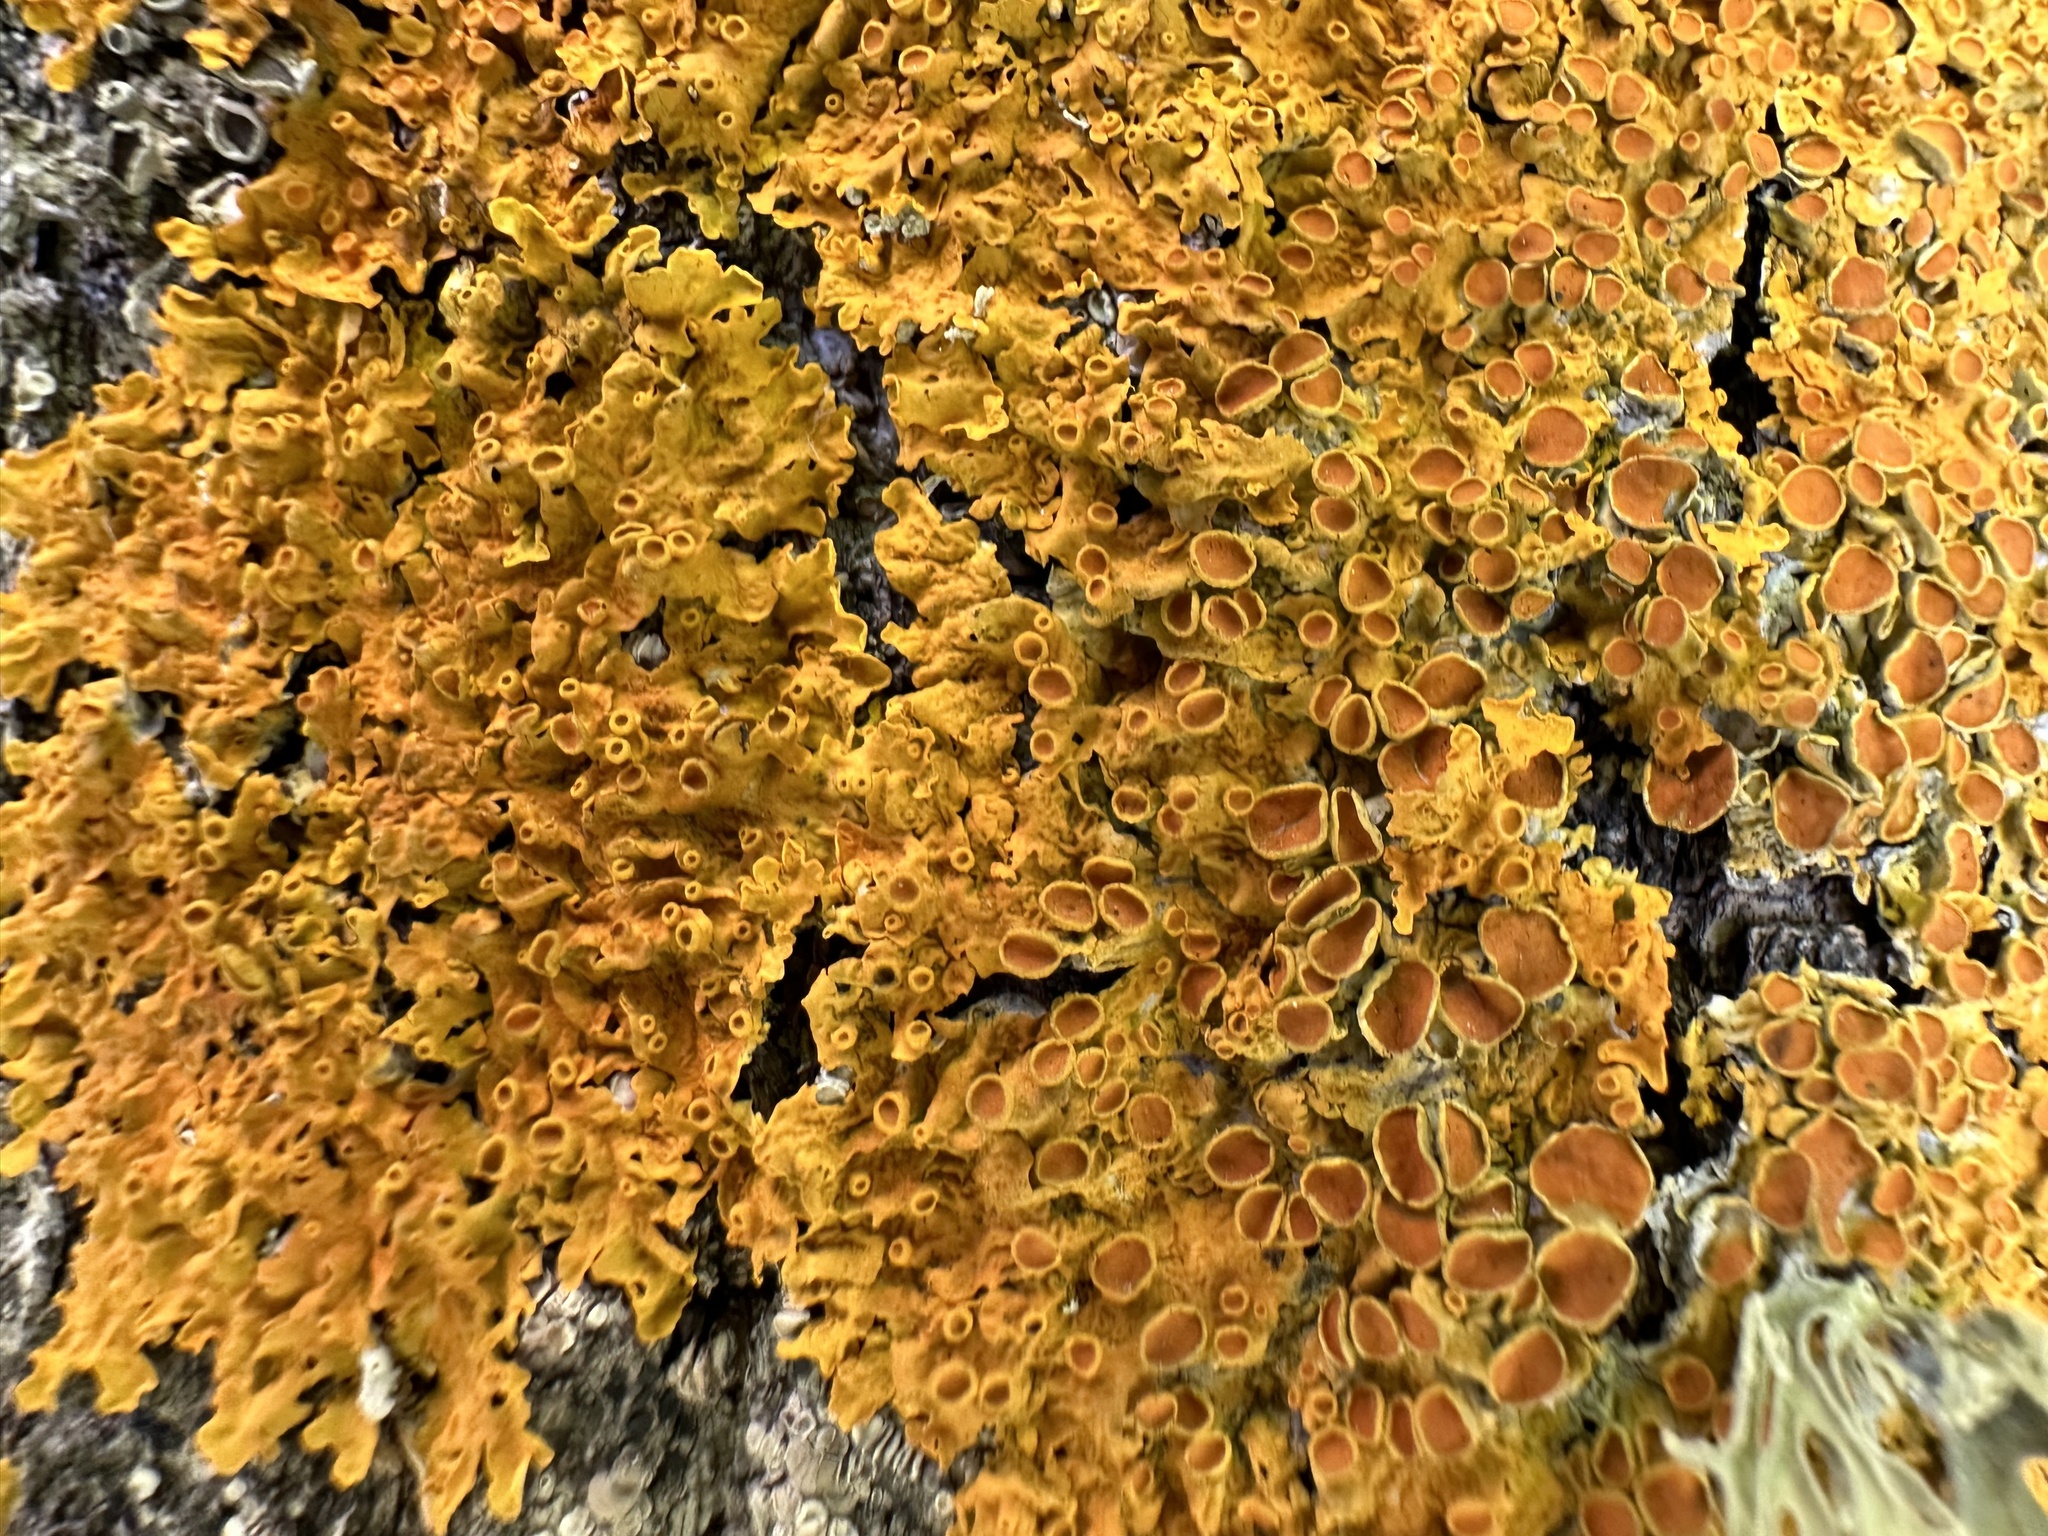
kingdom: Fungi
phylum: Ascomycota
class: Lecanoromycetes
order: Teloschistales
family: Teloschistaceae
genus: Xanthoria
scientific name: Xanthoria parietina
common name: Common orange lichen
